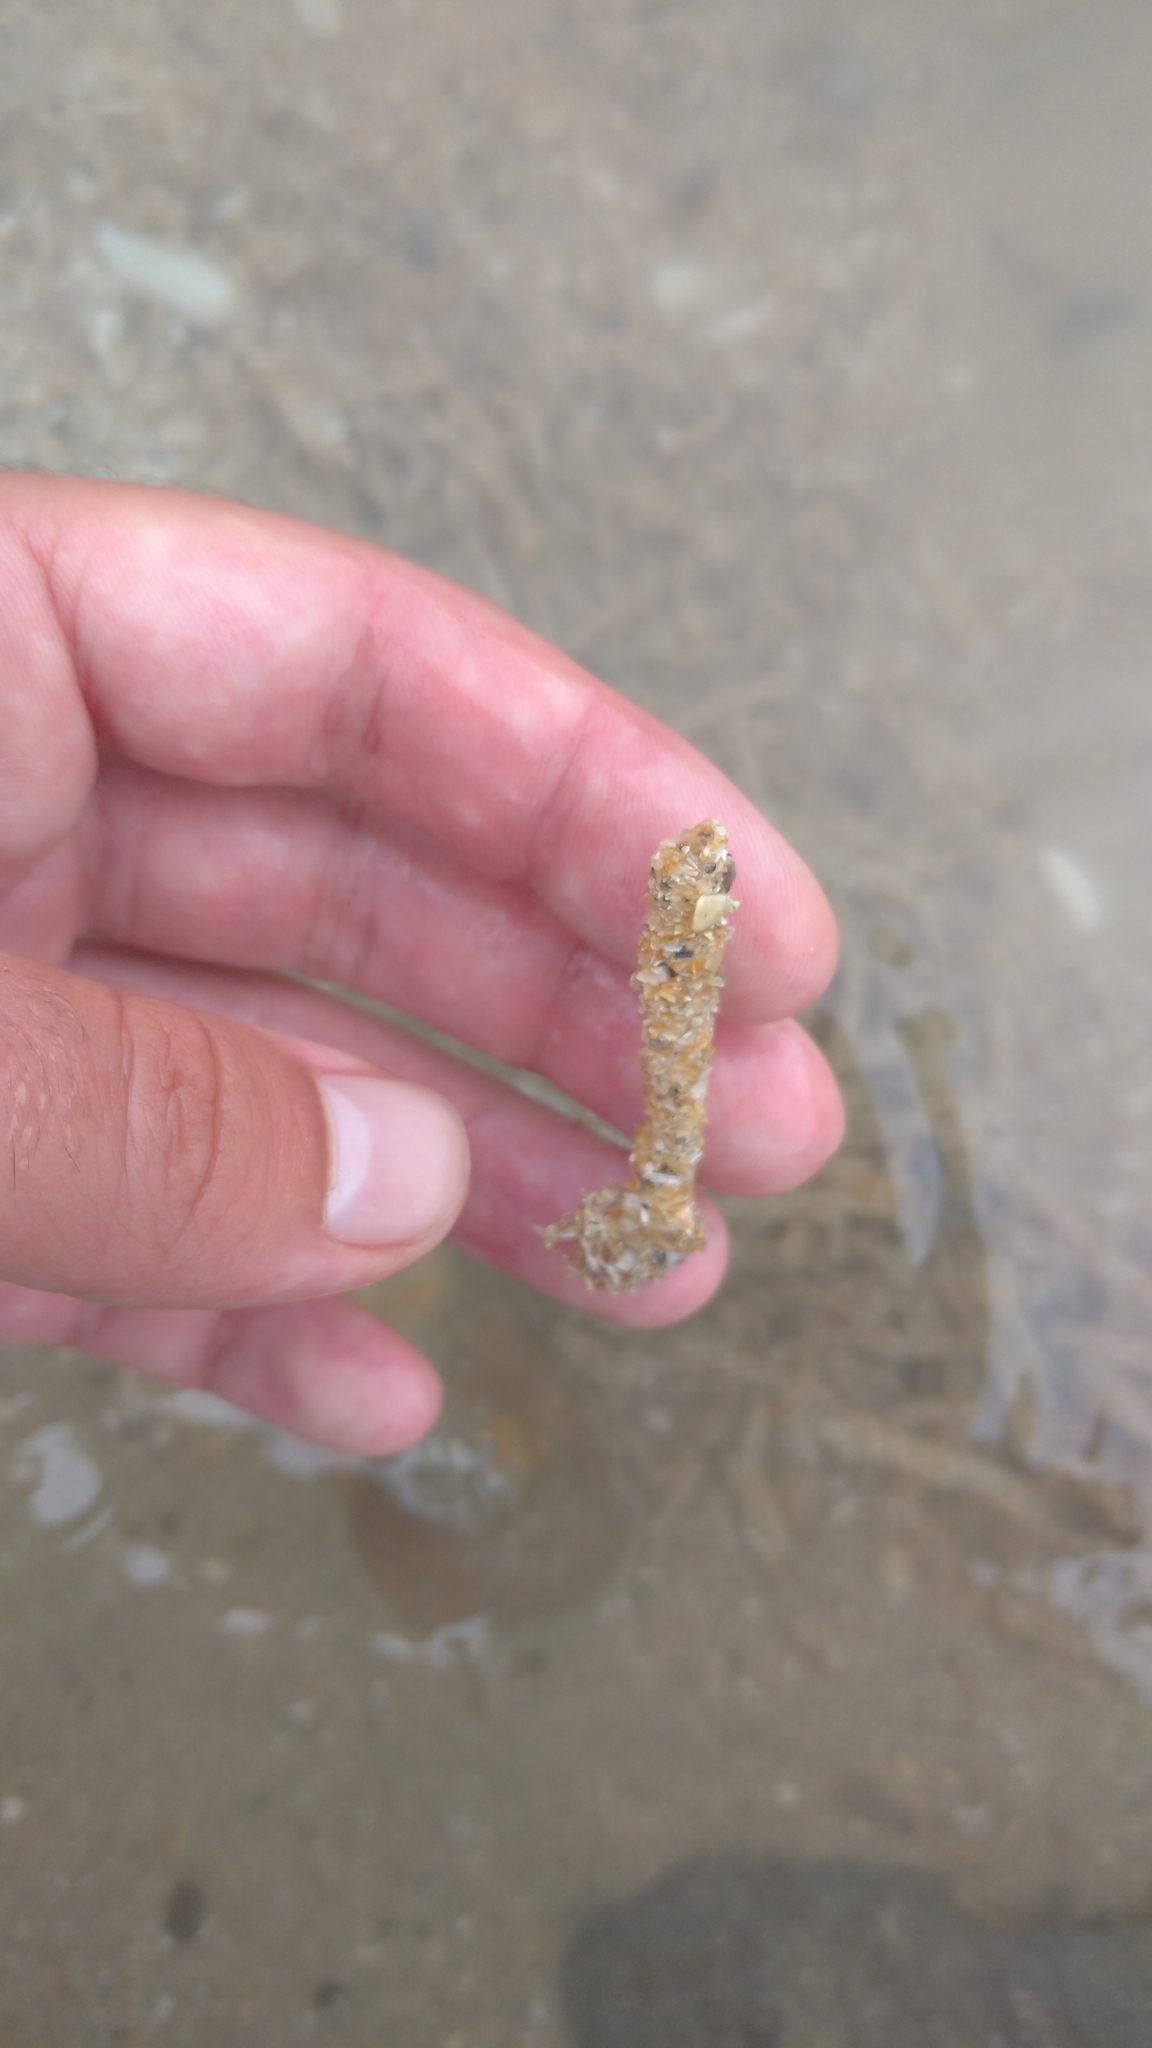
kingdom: Animalia
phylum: Annelida
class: Polychaeta
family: Terebellidae
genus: Lanice
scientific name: Lanice conchilega
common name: Sand mason
